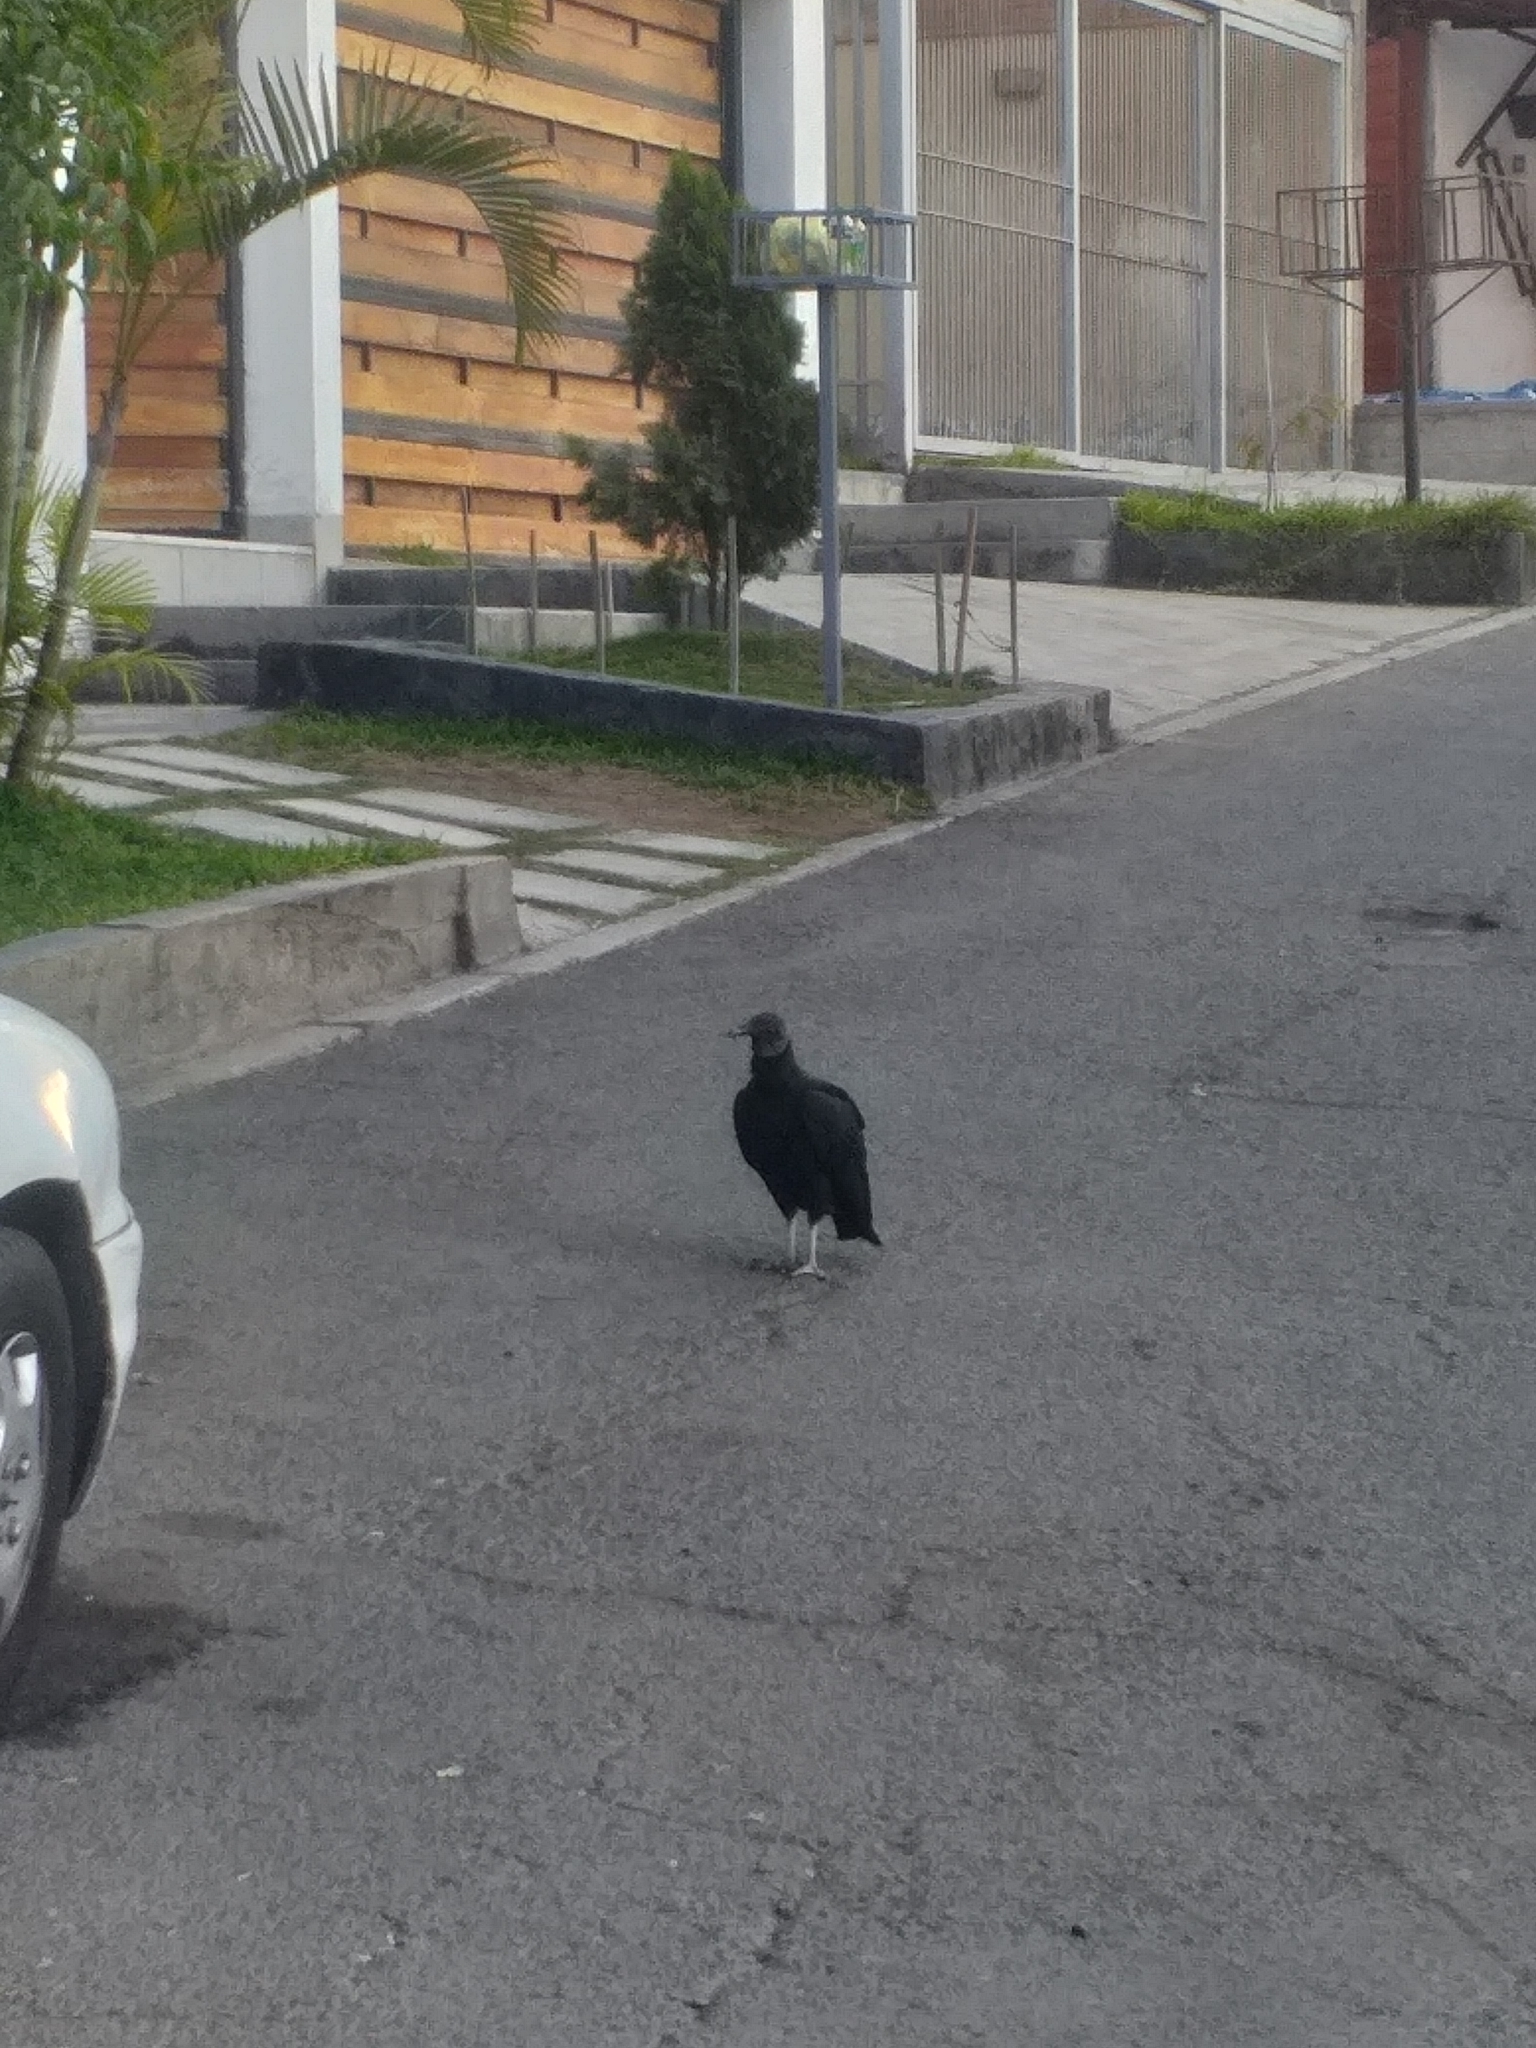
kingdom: Animalia
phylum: Chordata
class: Aves
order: Accipitriformes
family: Cathartidae
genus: Coragyps
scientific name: Coragyps atratus
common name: Black vulture
